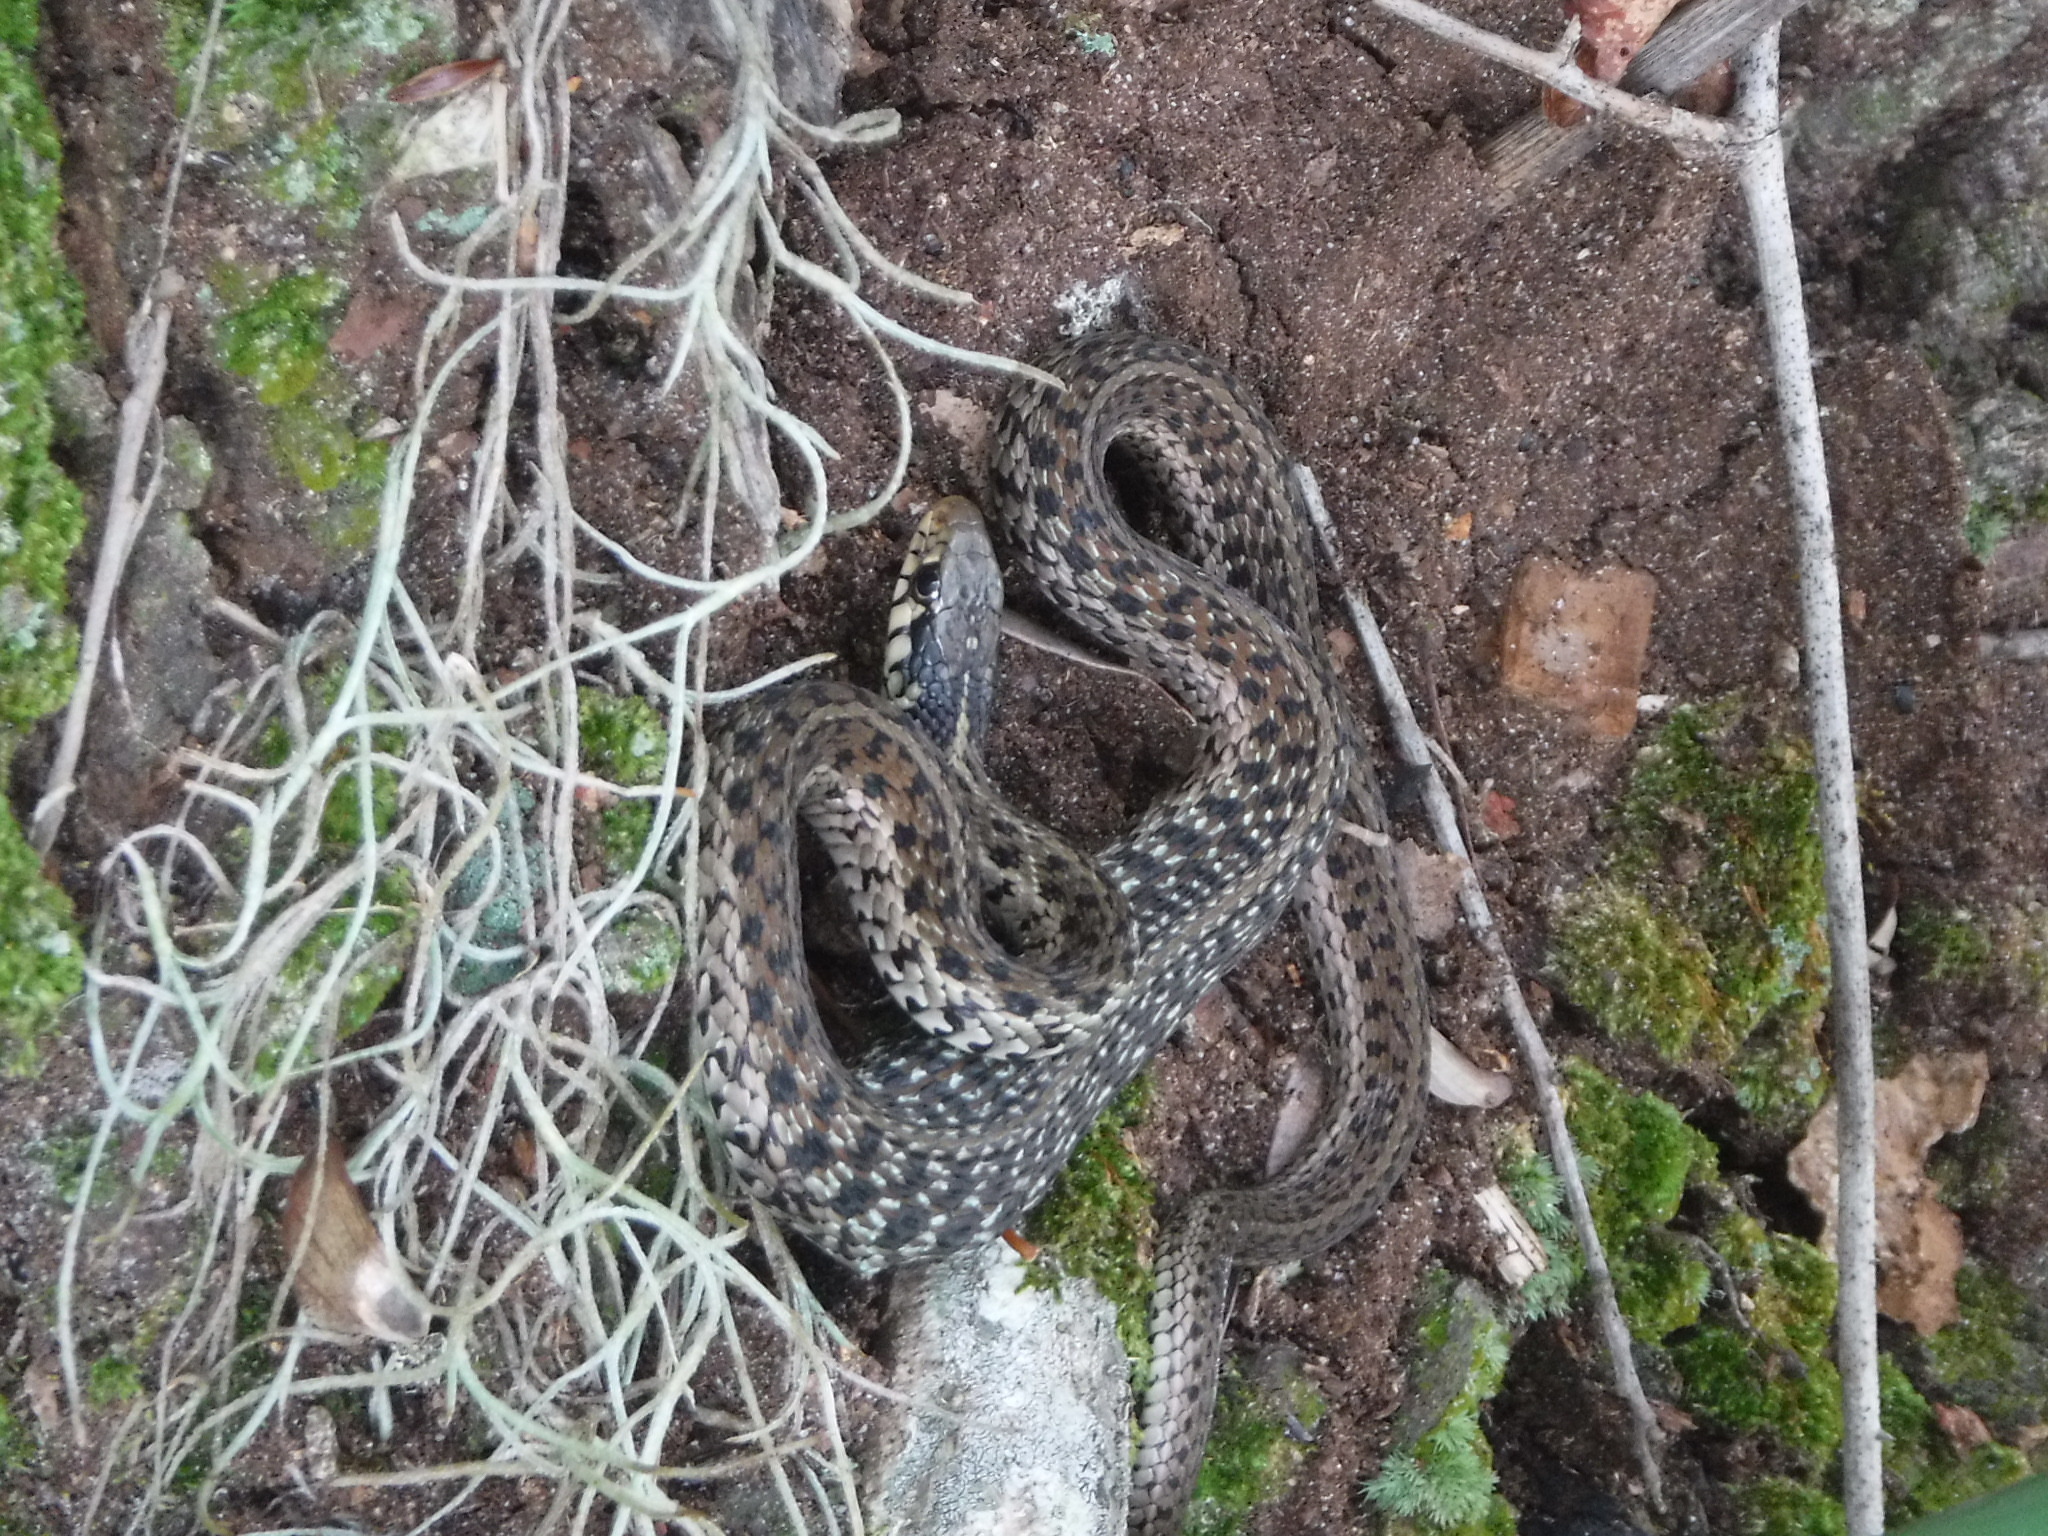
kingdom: Animalia
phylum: Chordata
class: Squamata
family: Colubridae
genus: Thamnophis
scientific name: Thamnophis sirtalis
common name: Common garter snake
